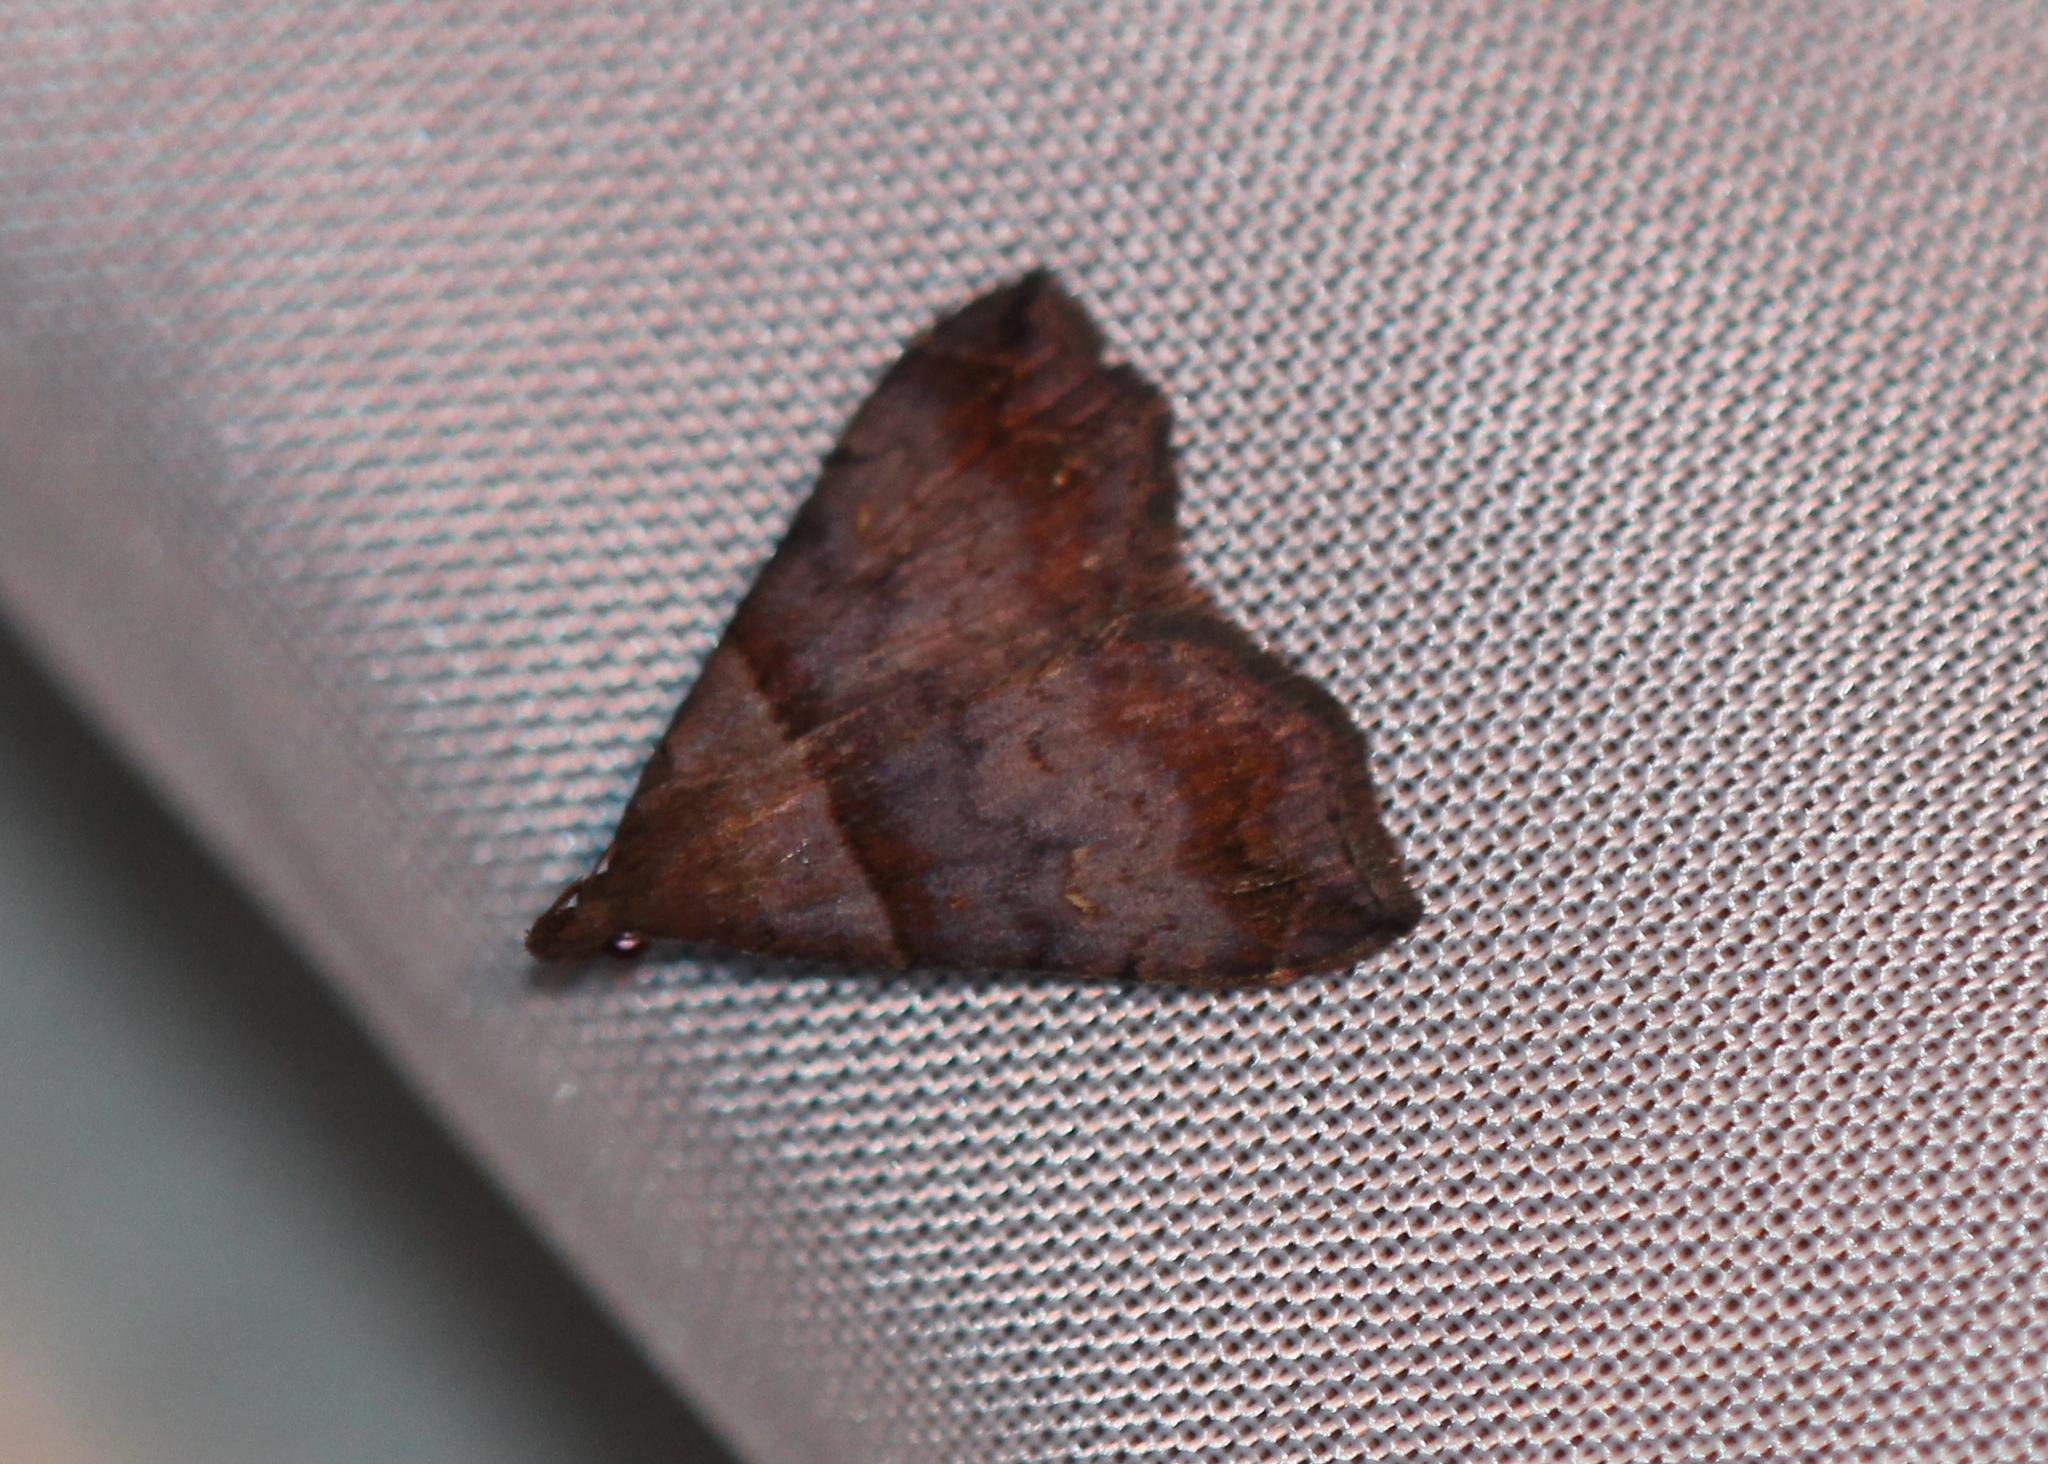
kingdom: Animalia
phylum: Arthropoda
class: Insecta
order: Lepidoptera
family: Erebidae
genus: Lascoria
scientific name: Lascoria ambigualis
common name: Ambiguous moth
